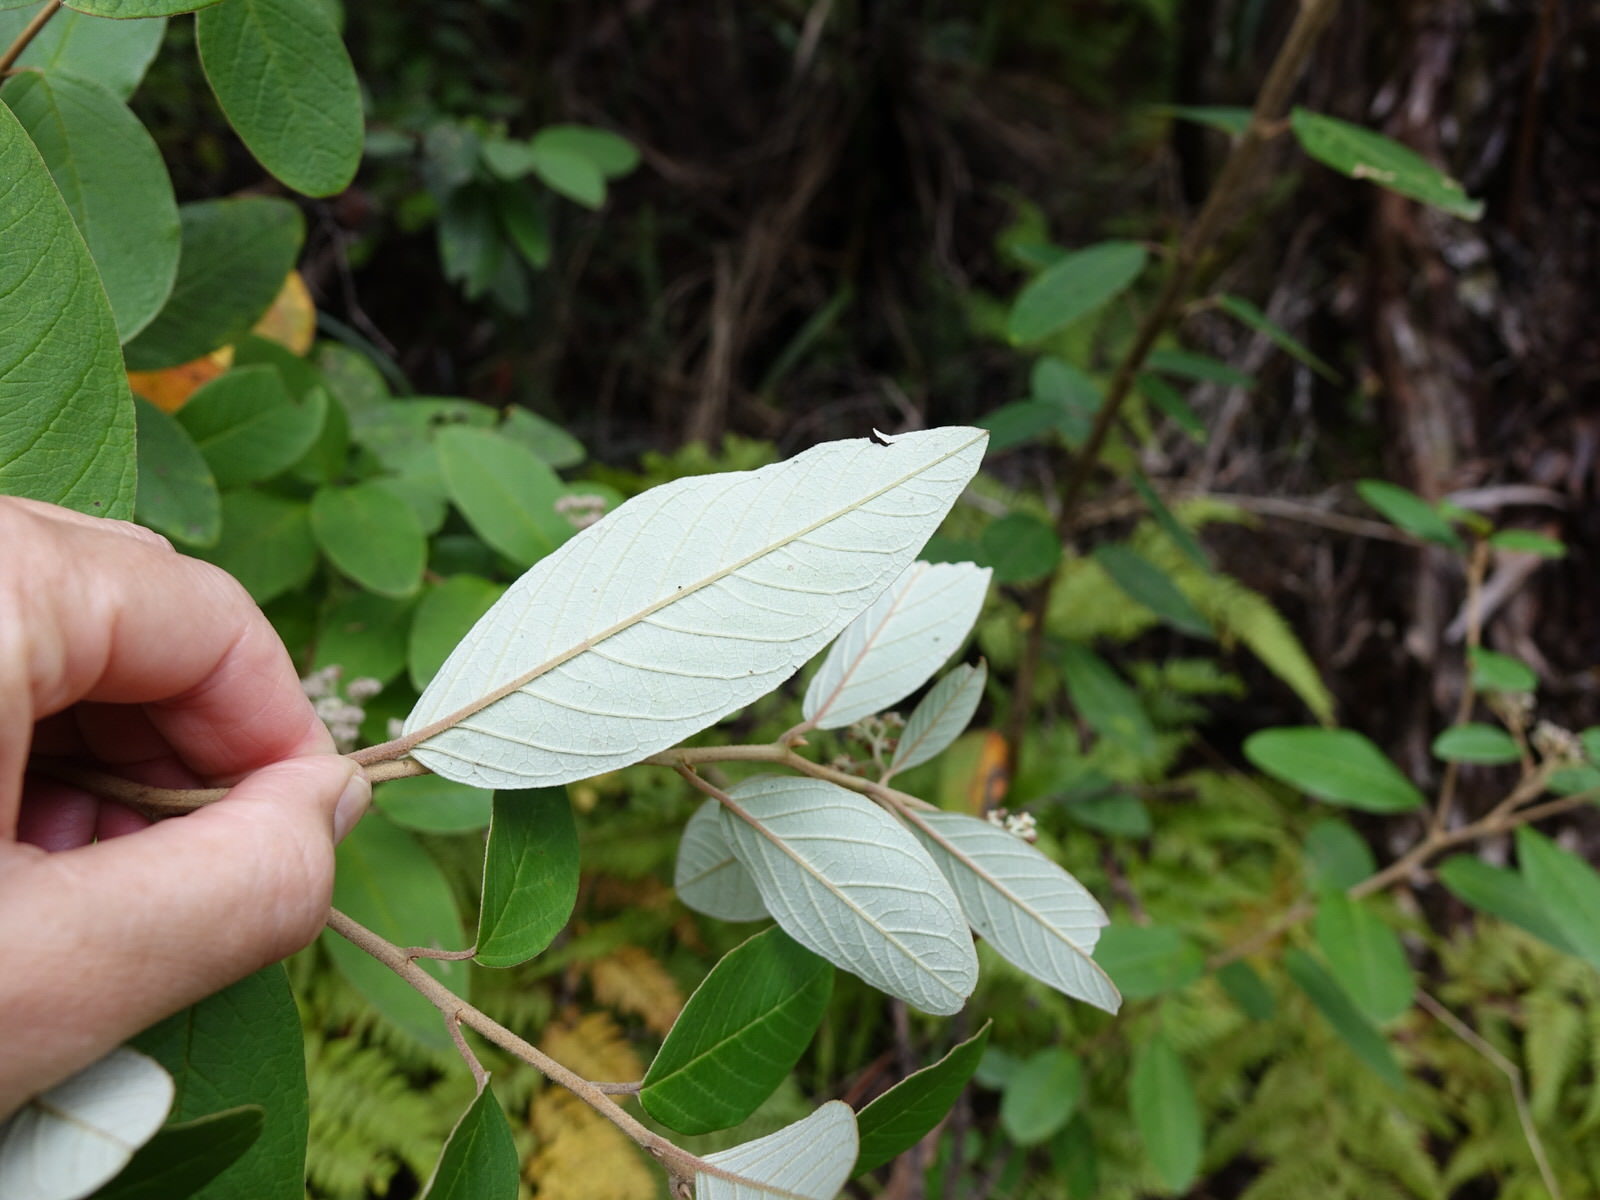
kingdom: Plantae
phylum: Tracheophyta
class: Magnoliopsida
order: Rosales
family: Rhamnaceae
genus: Pomaderris
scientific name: Pomaderris kumeraho
